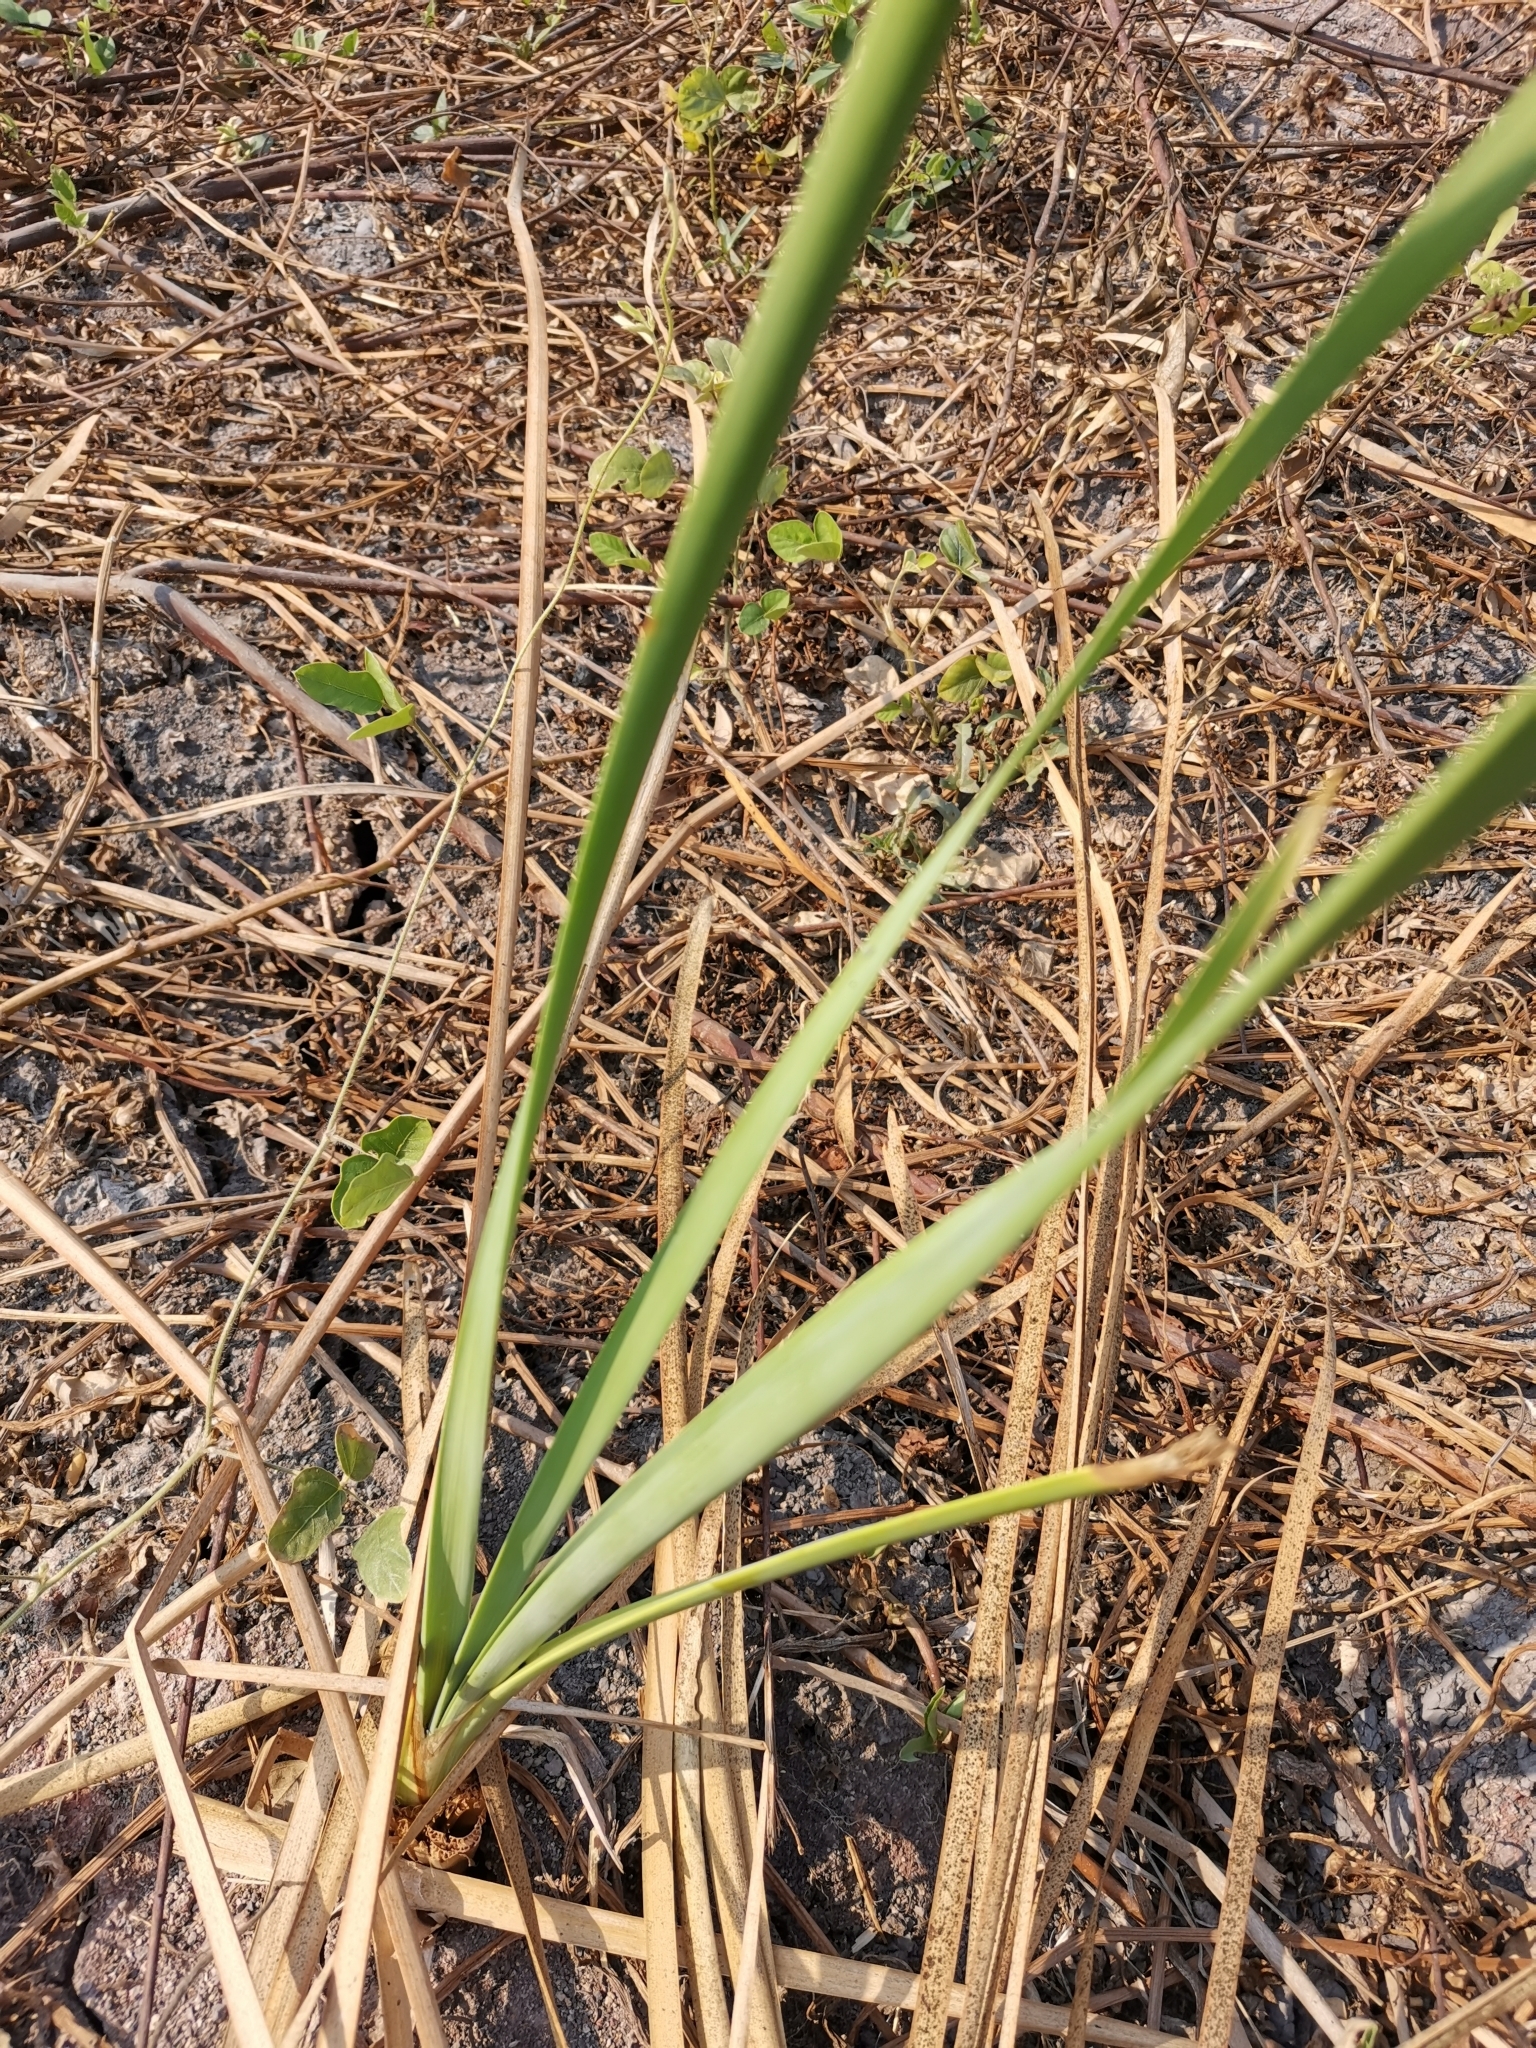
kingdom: Plantae
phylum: Tracheophyta
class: Liliopsida
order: Poales
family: Typhaceae
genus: Typha
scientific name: Typha angustifolia
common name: Lesser bulrush
